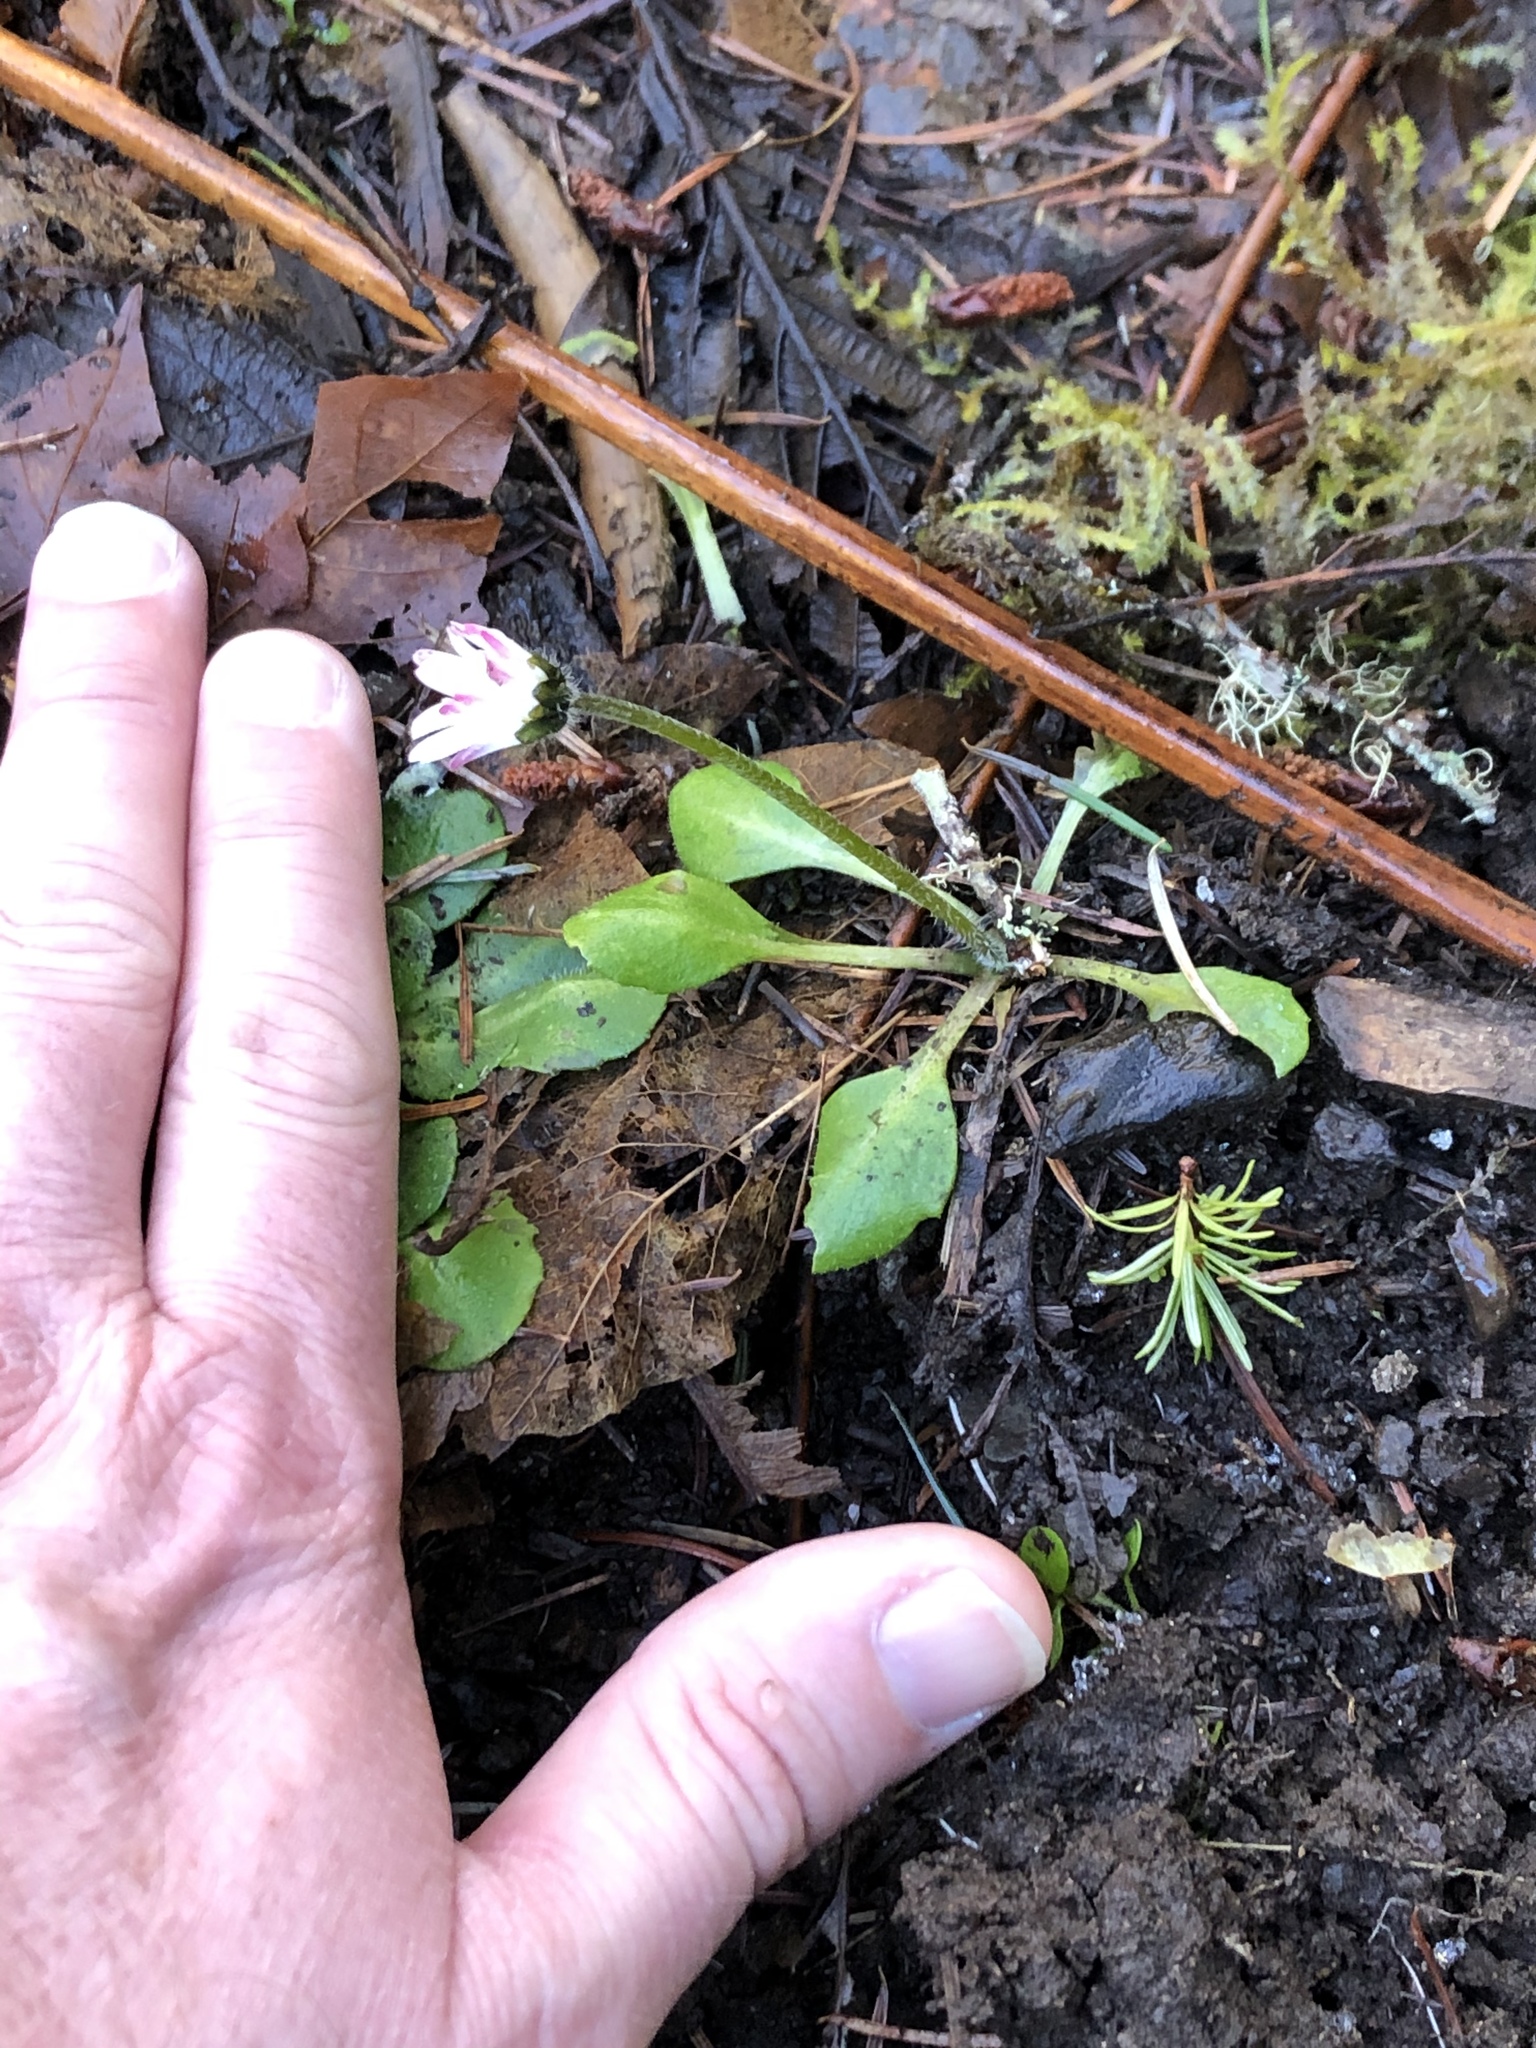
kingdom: Plantae
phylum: Tracheophyta
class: Magnoliopsida
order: Asterales
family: Asteraceae
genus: Bellis
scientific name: Bellis perennis
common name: Lawndaisy
